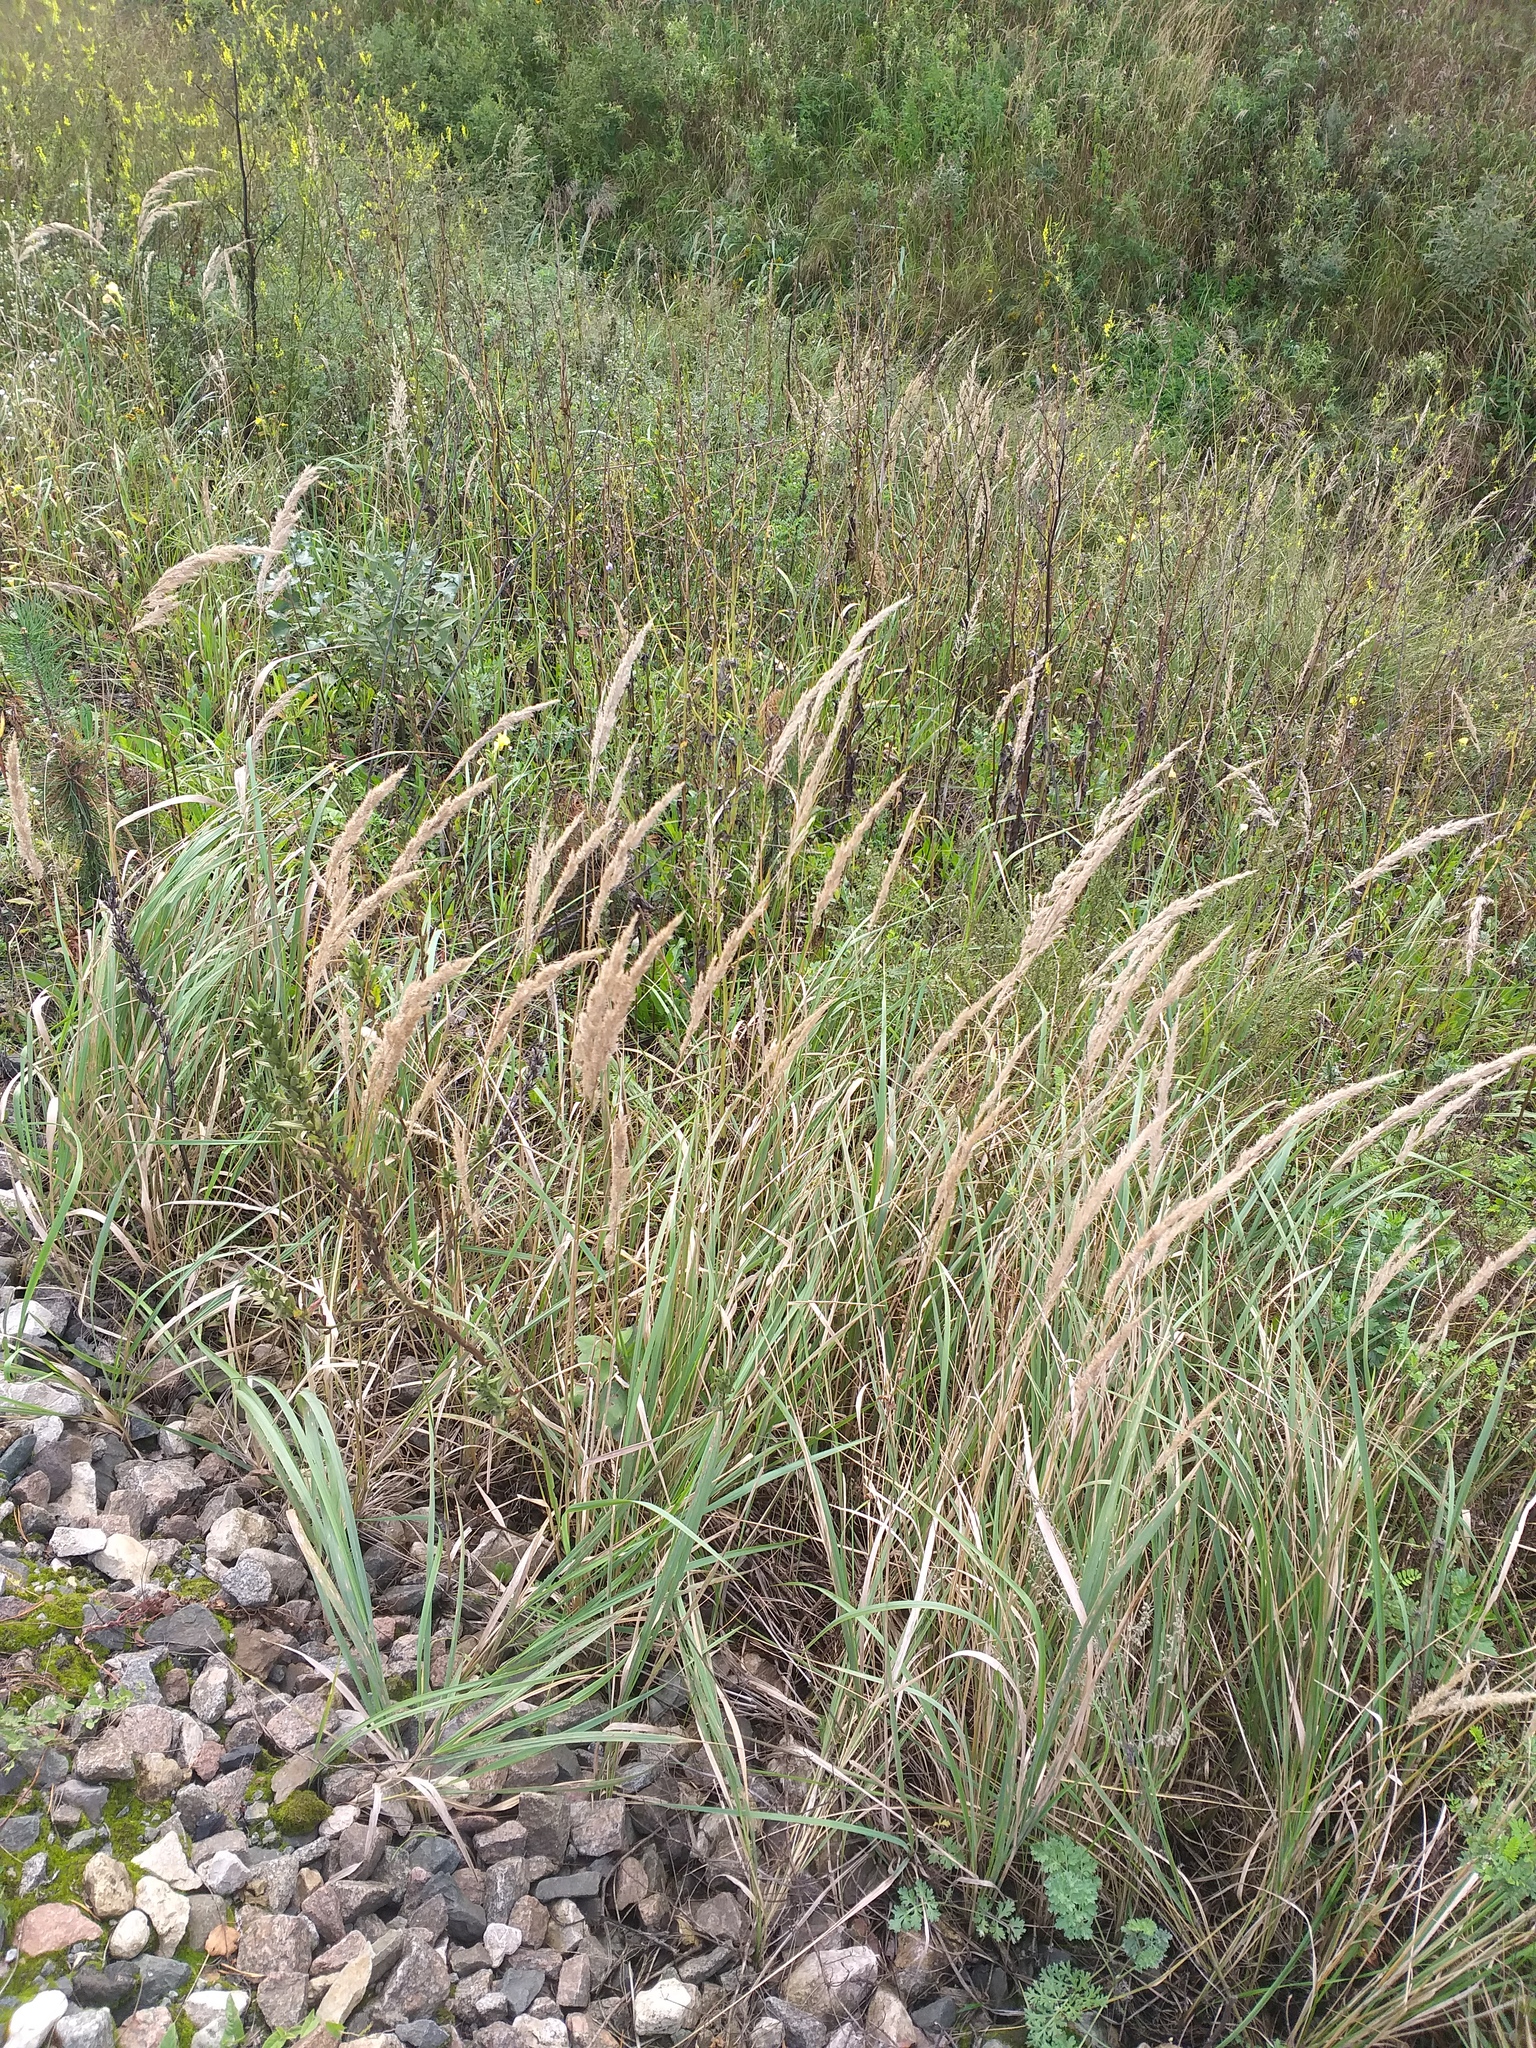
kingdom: Plantae
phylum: Tracheophyta
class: Liliopsida
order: Poales
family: Poaceae
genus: Calamagrostis
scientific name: Calamagrostis epigejos
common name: Wood small-reed
